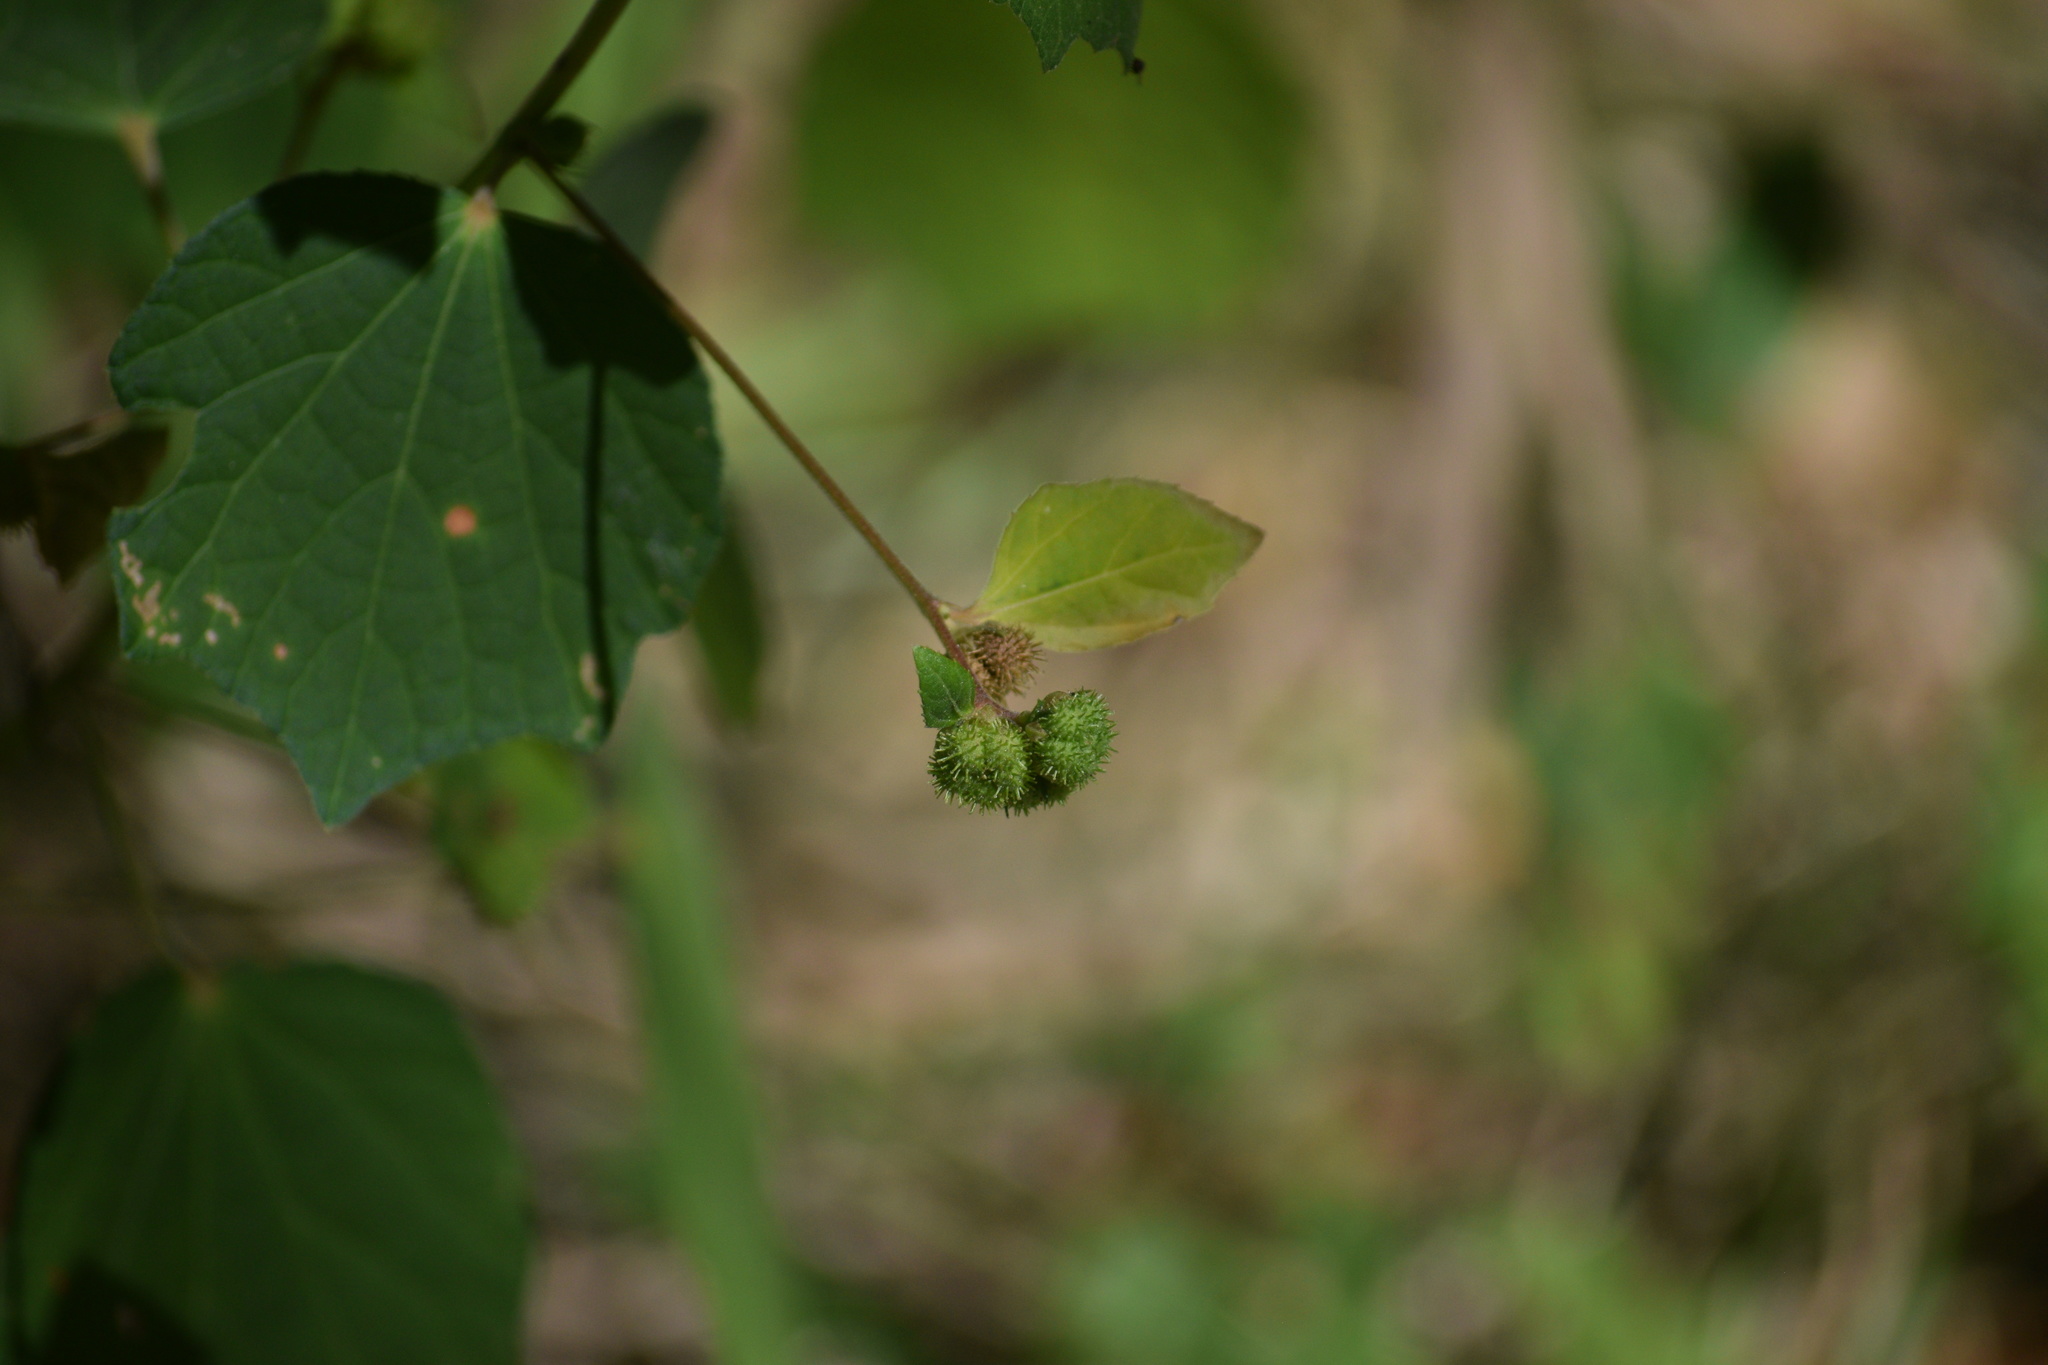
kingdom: Plantae
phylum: Tracheophyta
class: Magnoliopsida
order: Malvales
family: Malvaceae
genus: Urena
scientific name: Urena lobata
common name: Caesarweed
